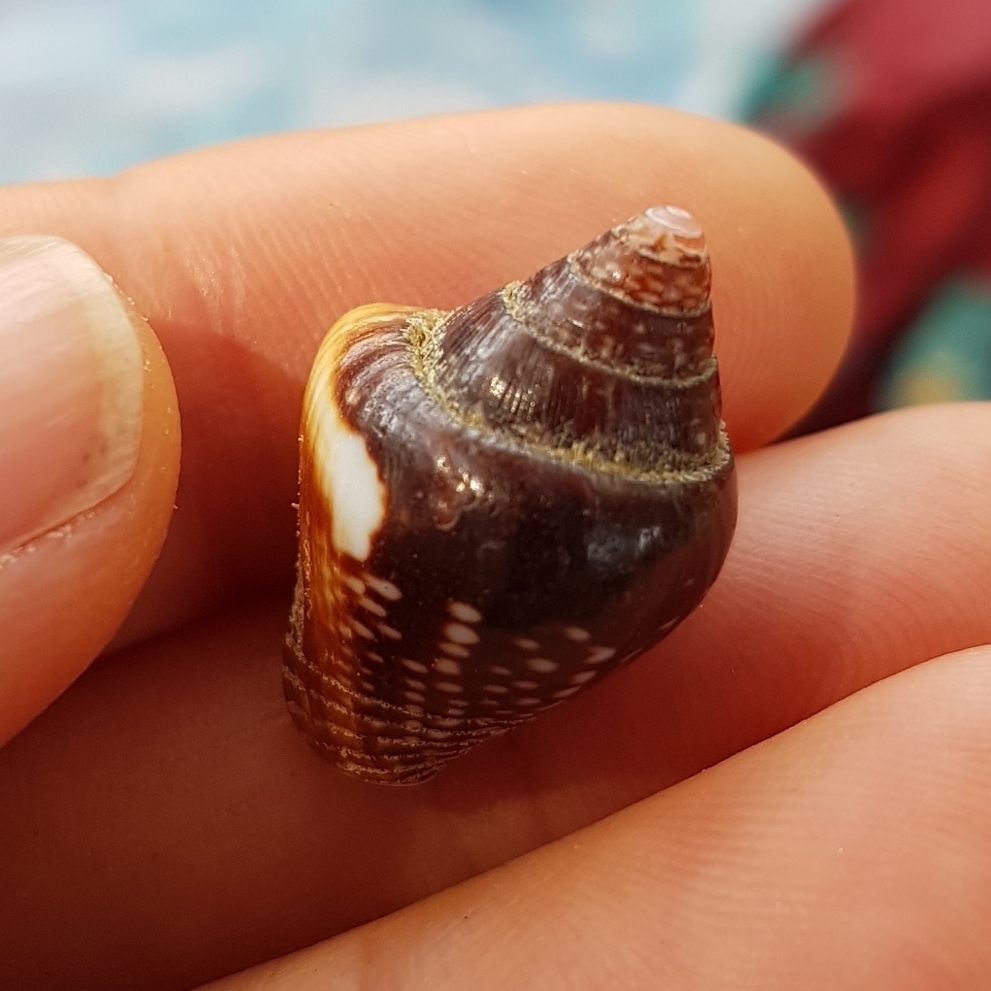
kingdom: Animalia
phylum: Mollusca
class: Gastropoda
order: Neogastropoda
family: Columbellidae
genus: Columbella
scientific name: Columbella major
